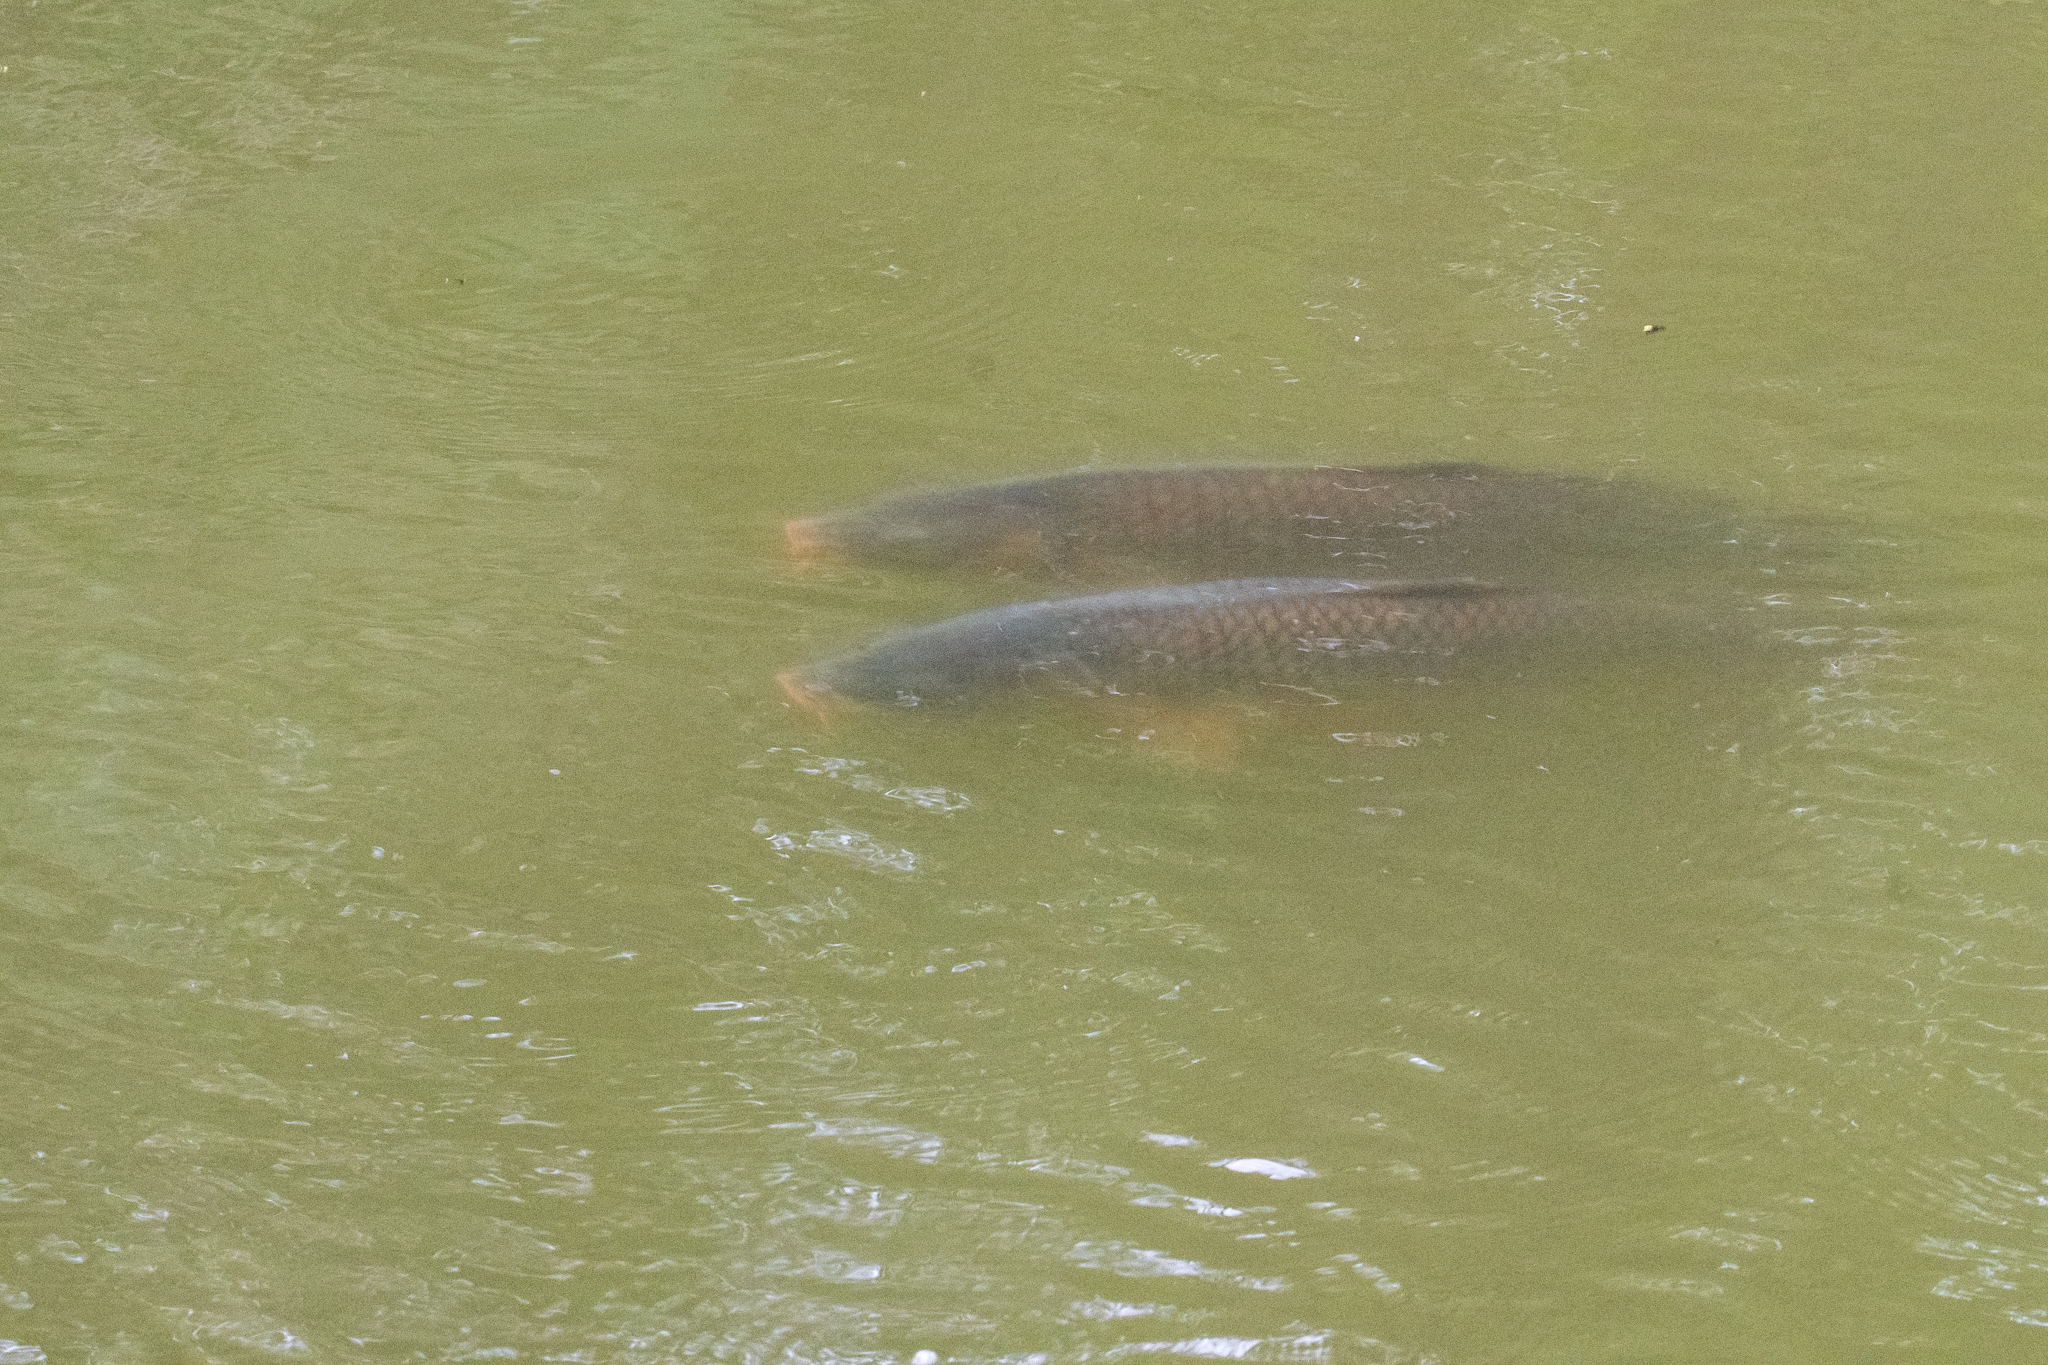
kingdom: Animalia
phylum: Chordata
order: Cypriniformes
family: Cyprinidae
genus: Cyprinus
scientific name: Cyprinus carpio
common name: Common carp
